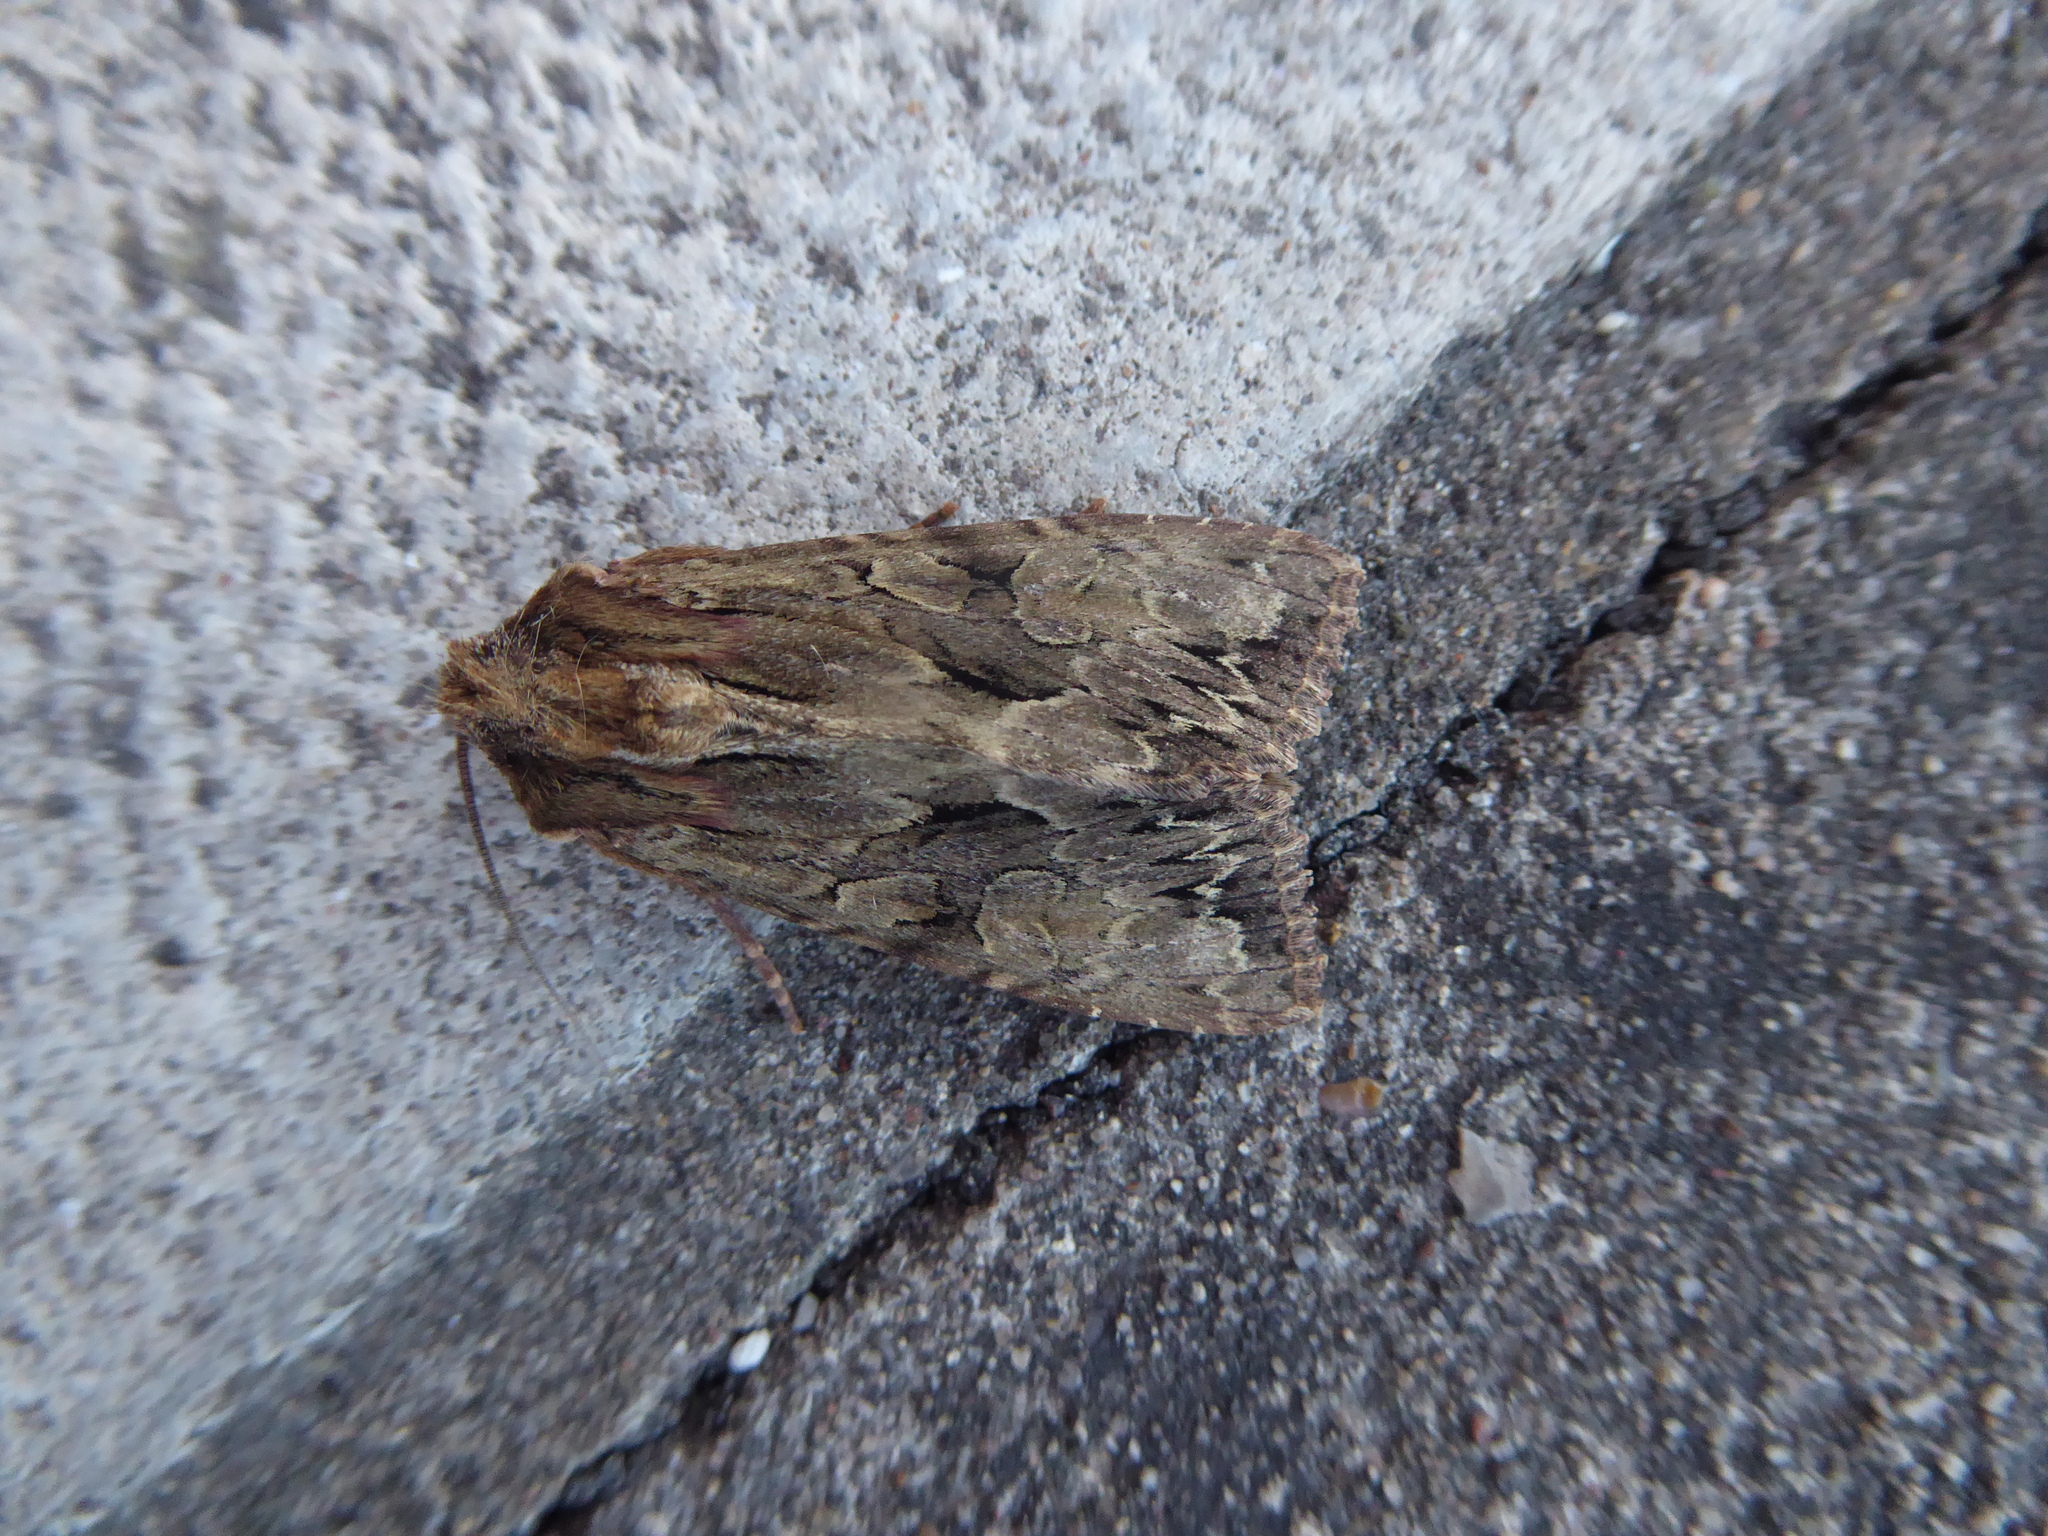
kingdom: Animalia
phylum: Arthropoda
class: Insecta
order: Lepidoptera
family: Noctuidae
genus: Apamea
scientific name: Apamea monoglypha
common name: Dark arches
